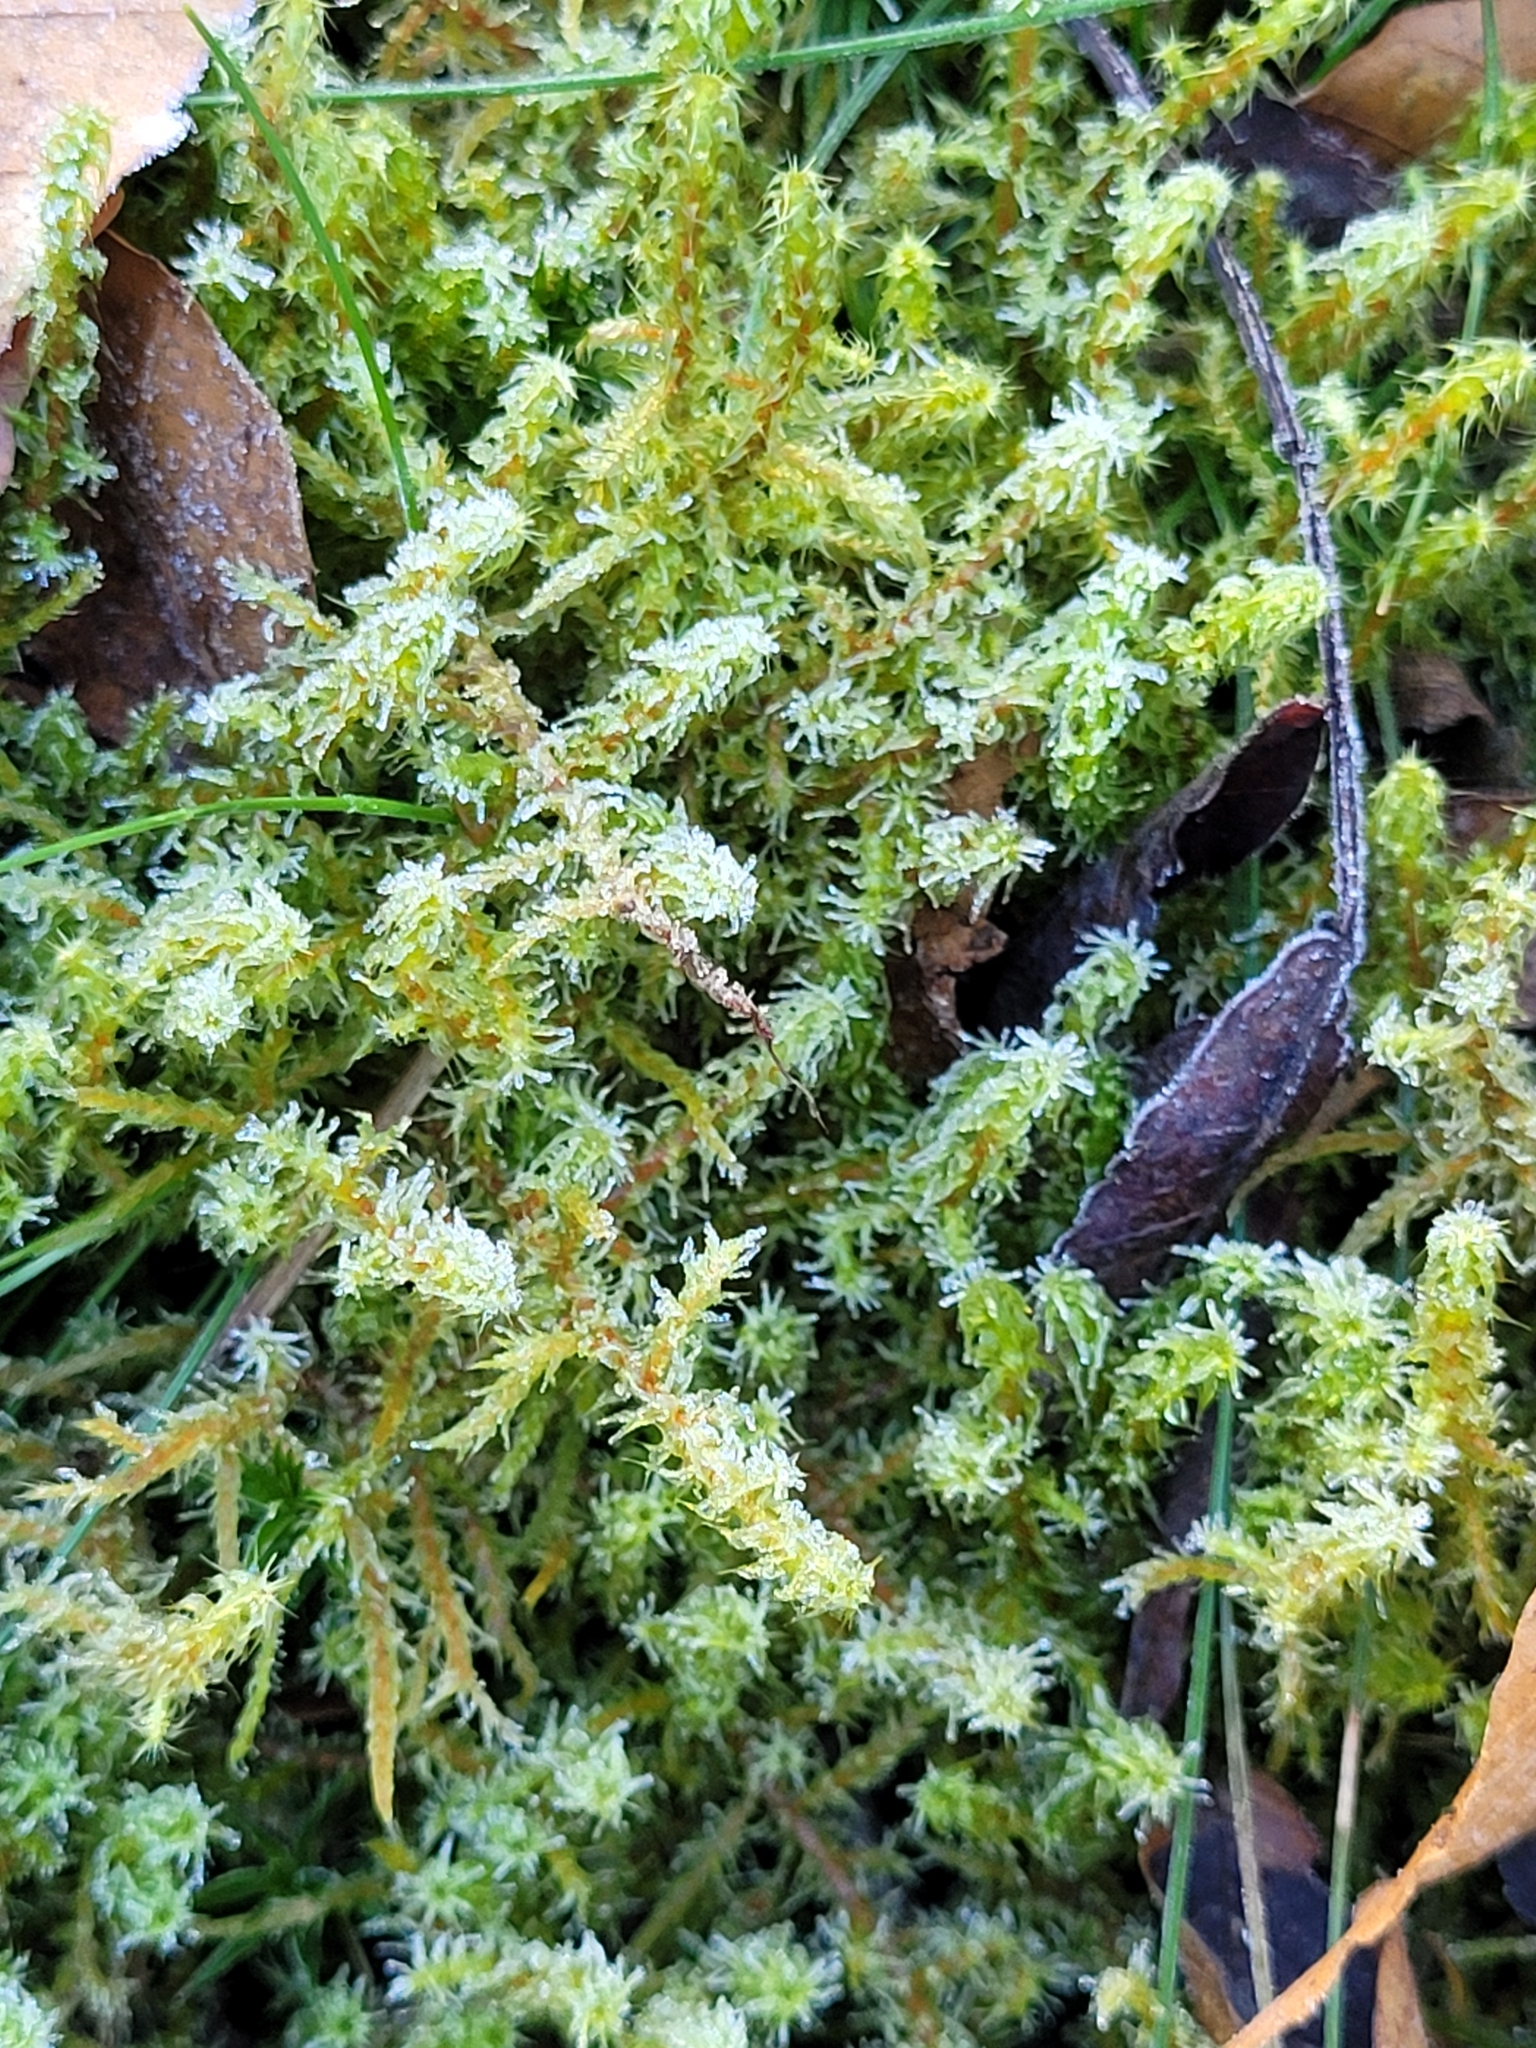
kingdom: Plantae
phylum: Bryophyta
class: Bryopsida
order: Hypnales
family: Hylocomiaceae
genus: Rhytidiadelphus
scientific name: Rhytidiadelphus squarrosus
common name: Springy turf-moss
